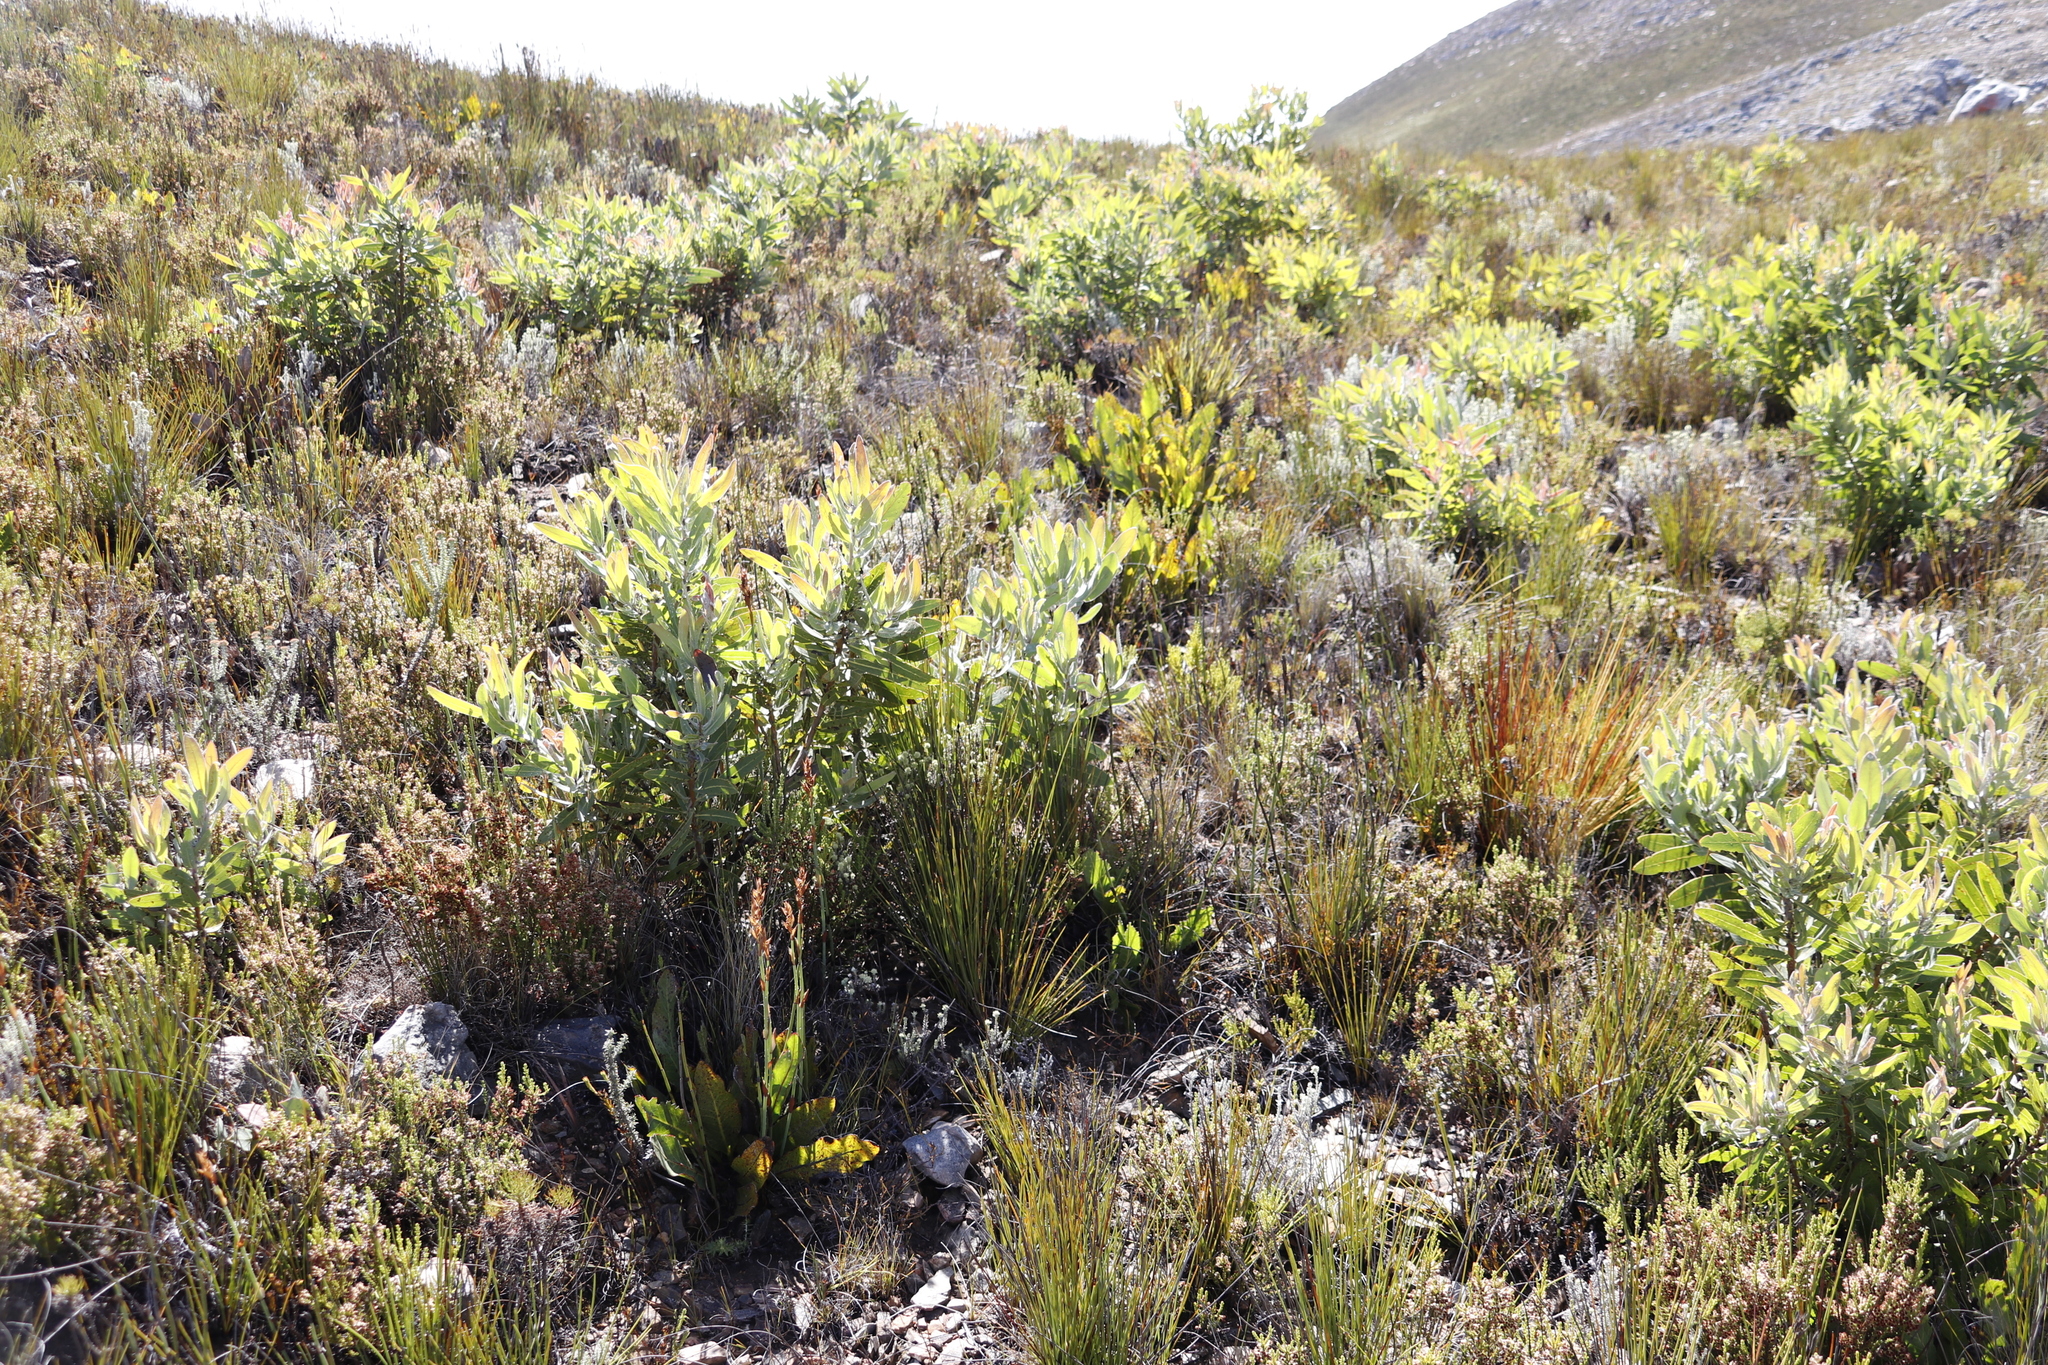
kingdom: Plantae
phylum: Tracheophyta
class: Magnoliopsida
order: Proteales
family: Proteaceae
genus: Protea
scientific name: Protea magnifica
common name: Bearded sugarbush
